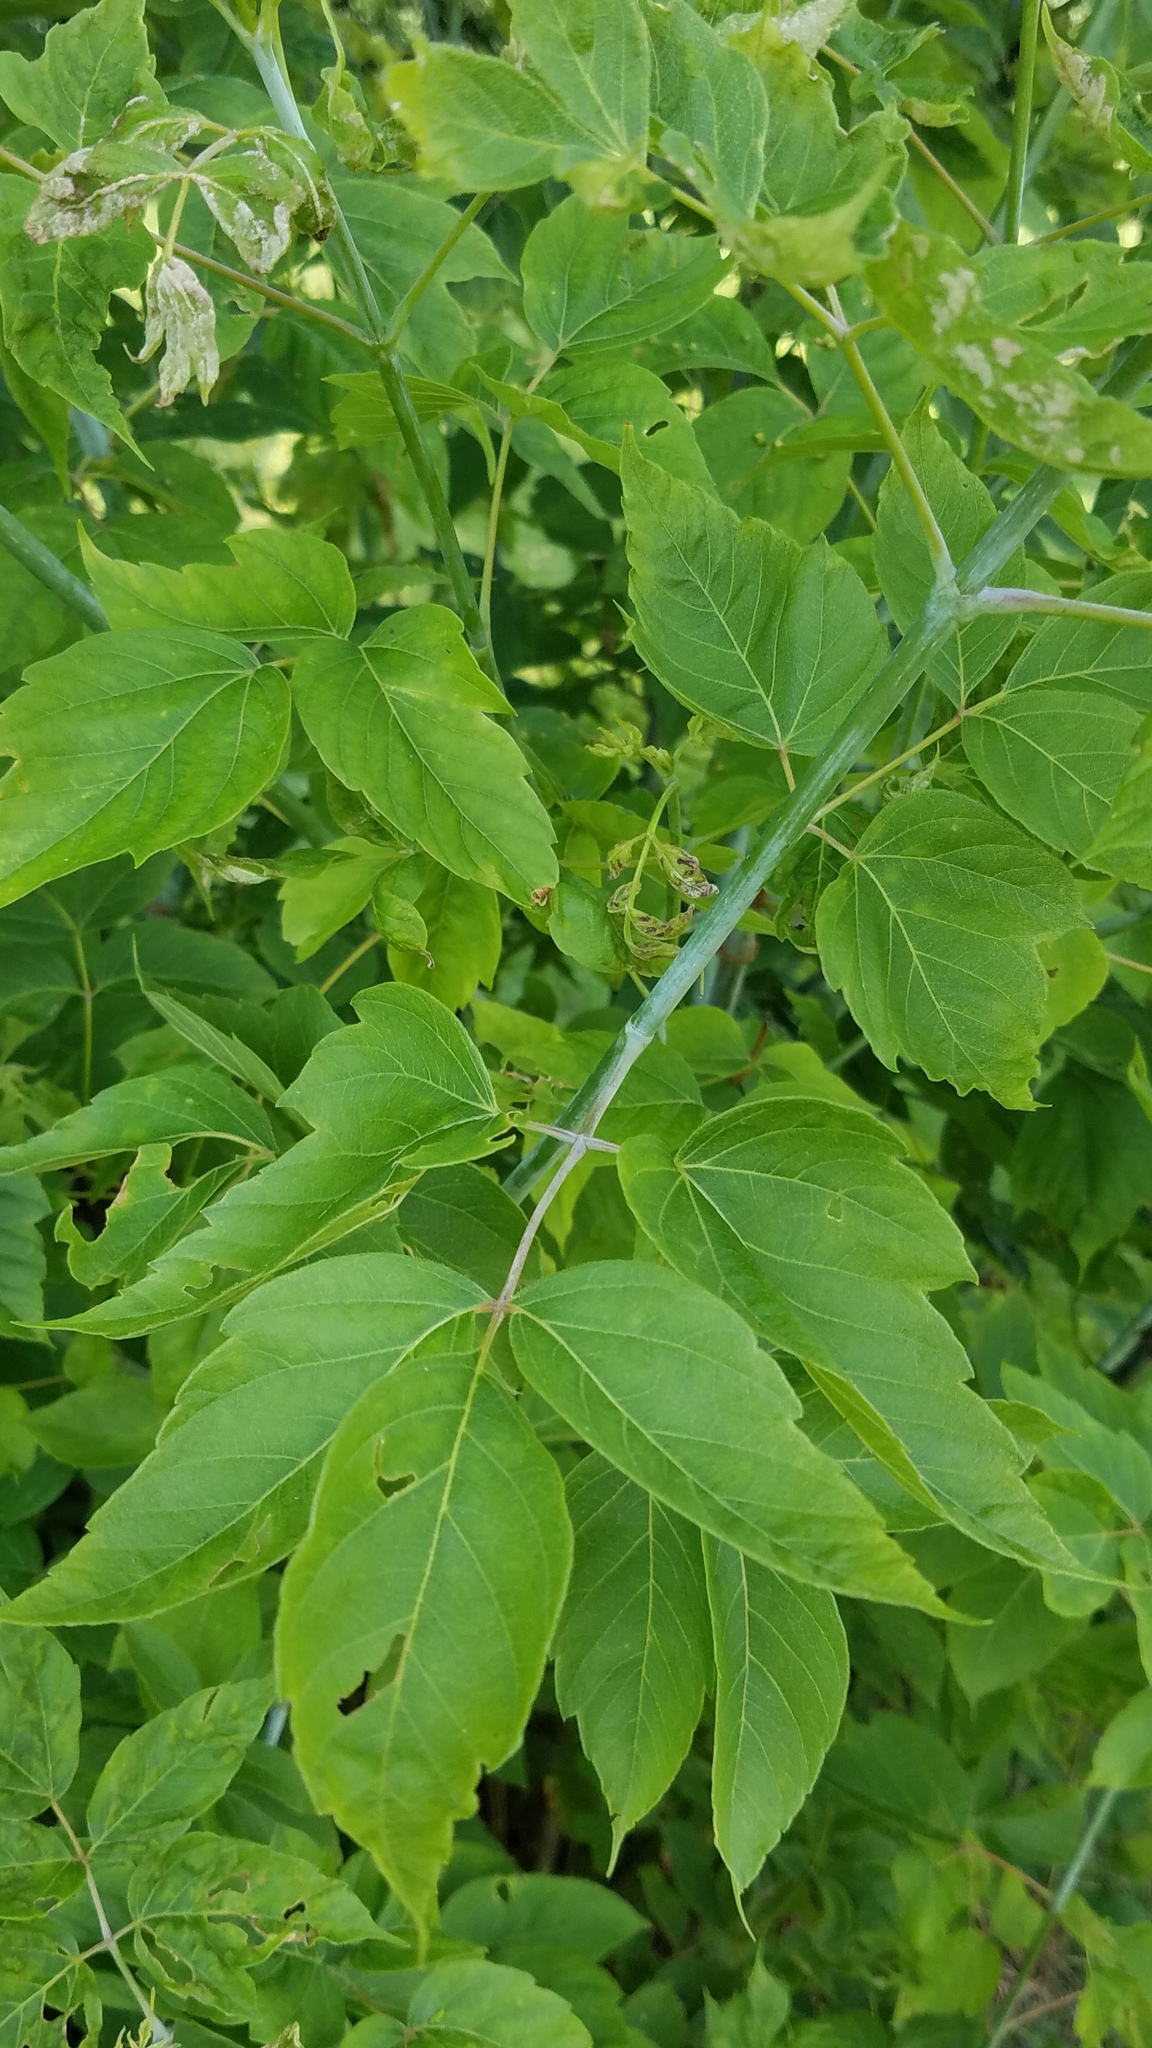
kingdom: Plantae
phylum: Tracheophyta
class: Magnoliopsida
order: Sapindales
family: Sapindaceae
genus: Acer
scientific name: Acer negundo
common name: Ashleaf maple
